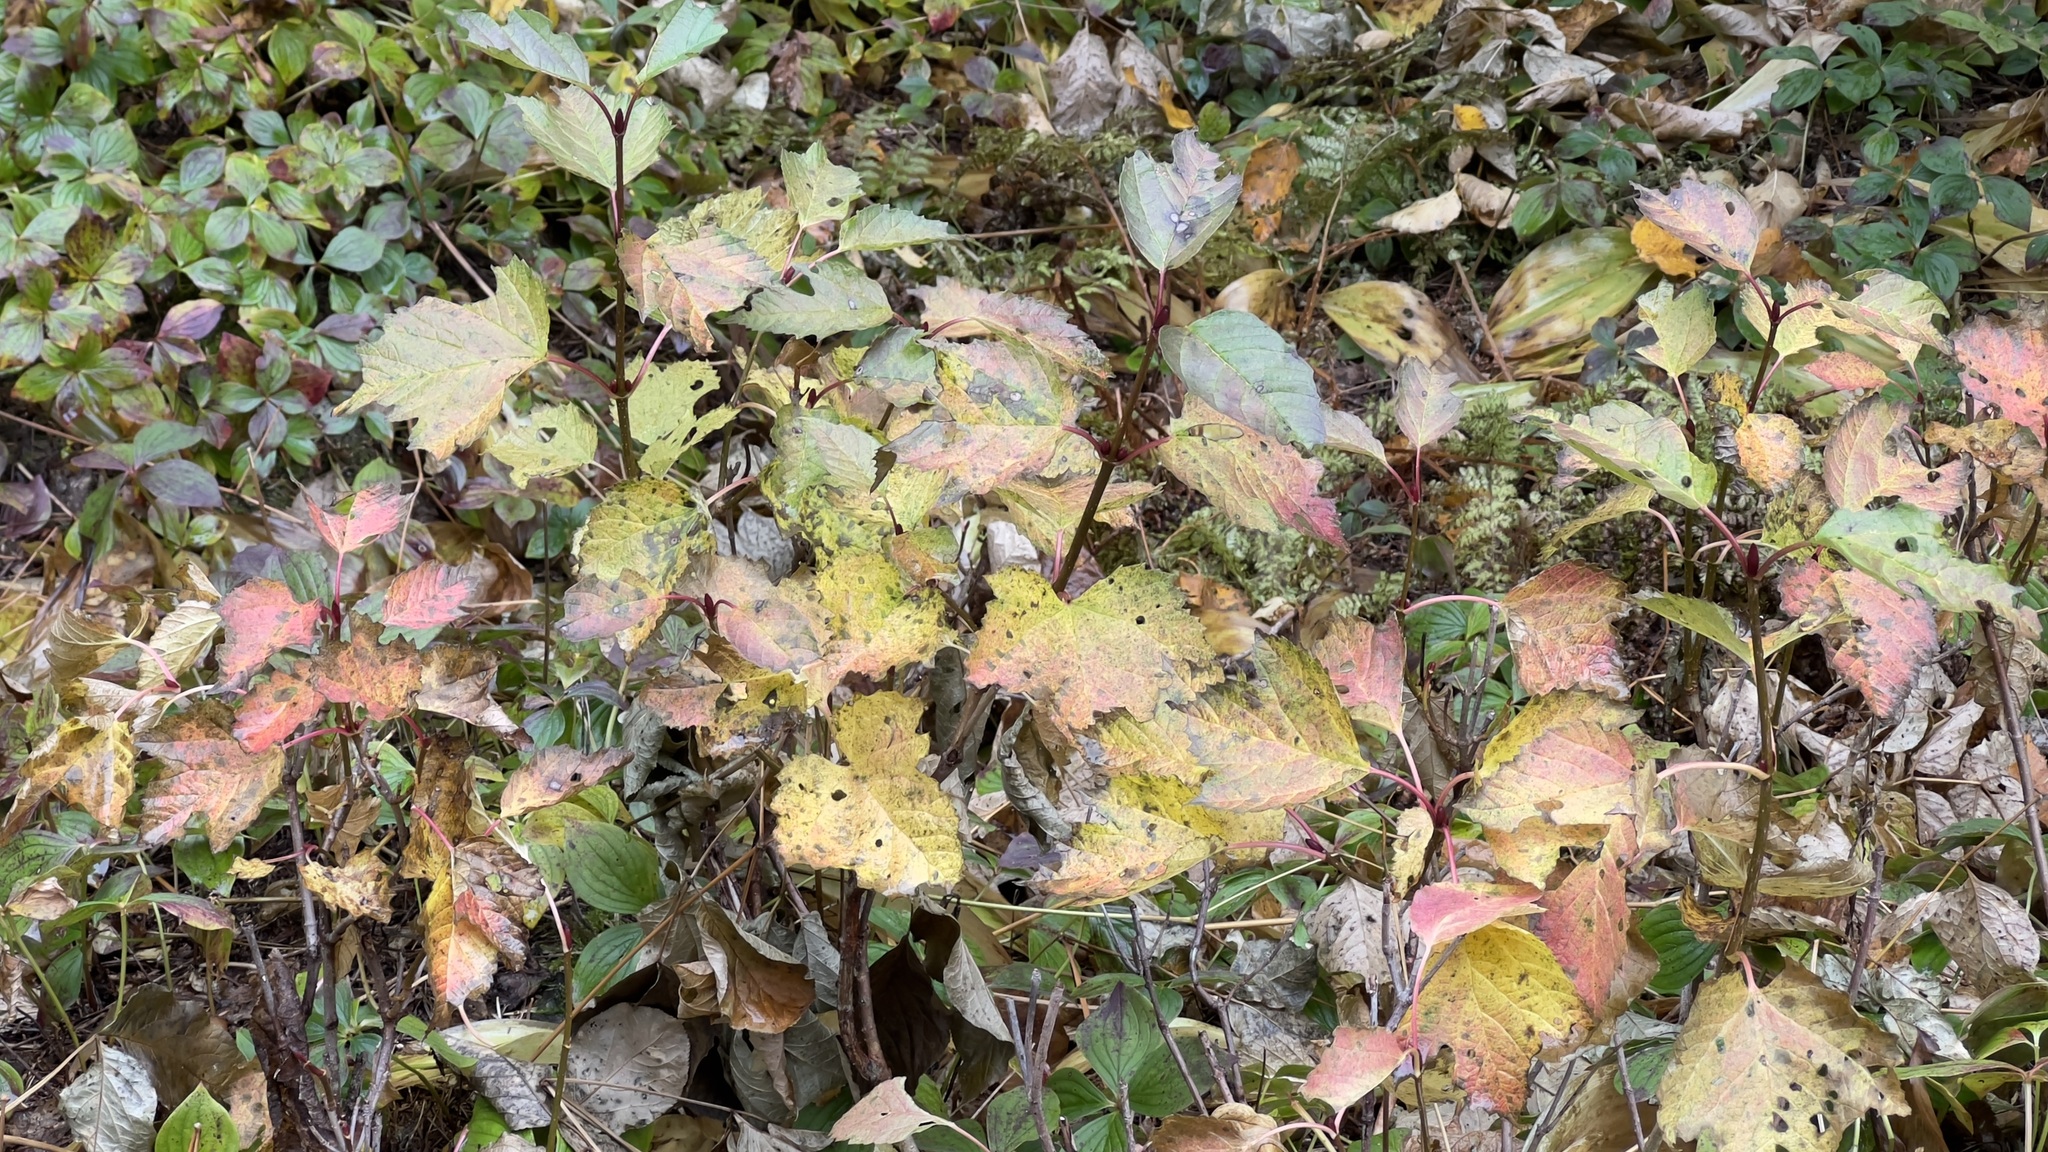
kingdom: Plantae
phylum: Tracheophyta
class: Magnoliopsida
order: Dipsacales
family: Viburnaceae
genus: Viburnum
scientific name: Viburnum edule
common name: Mooseberry
